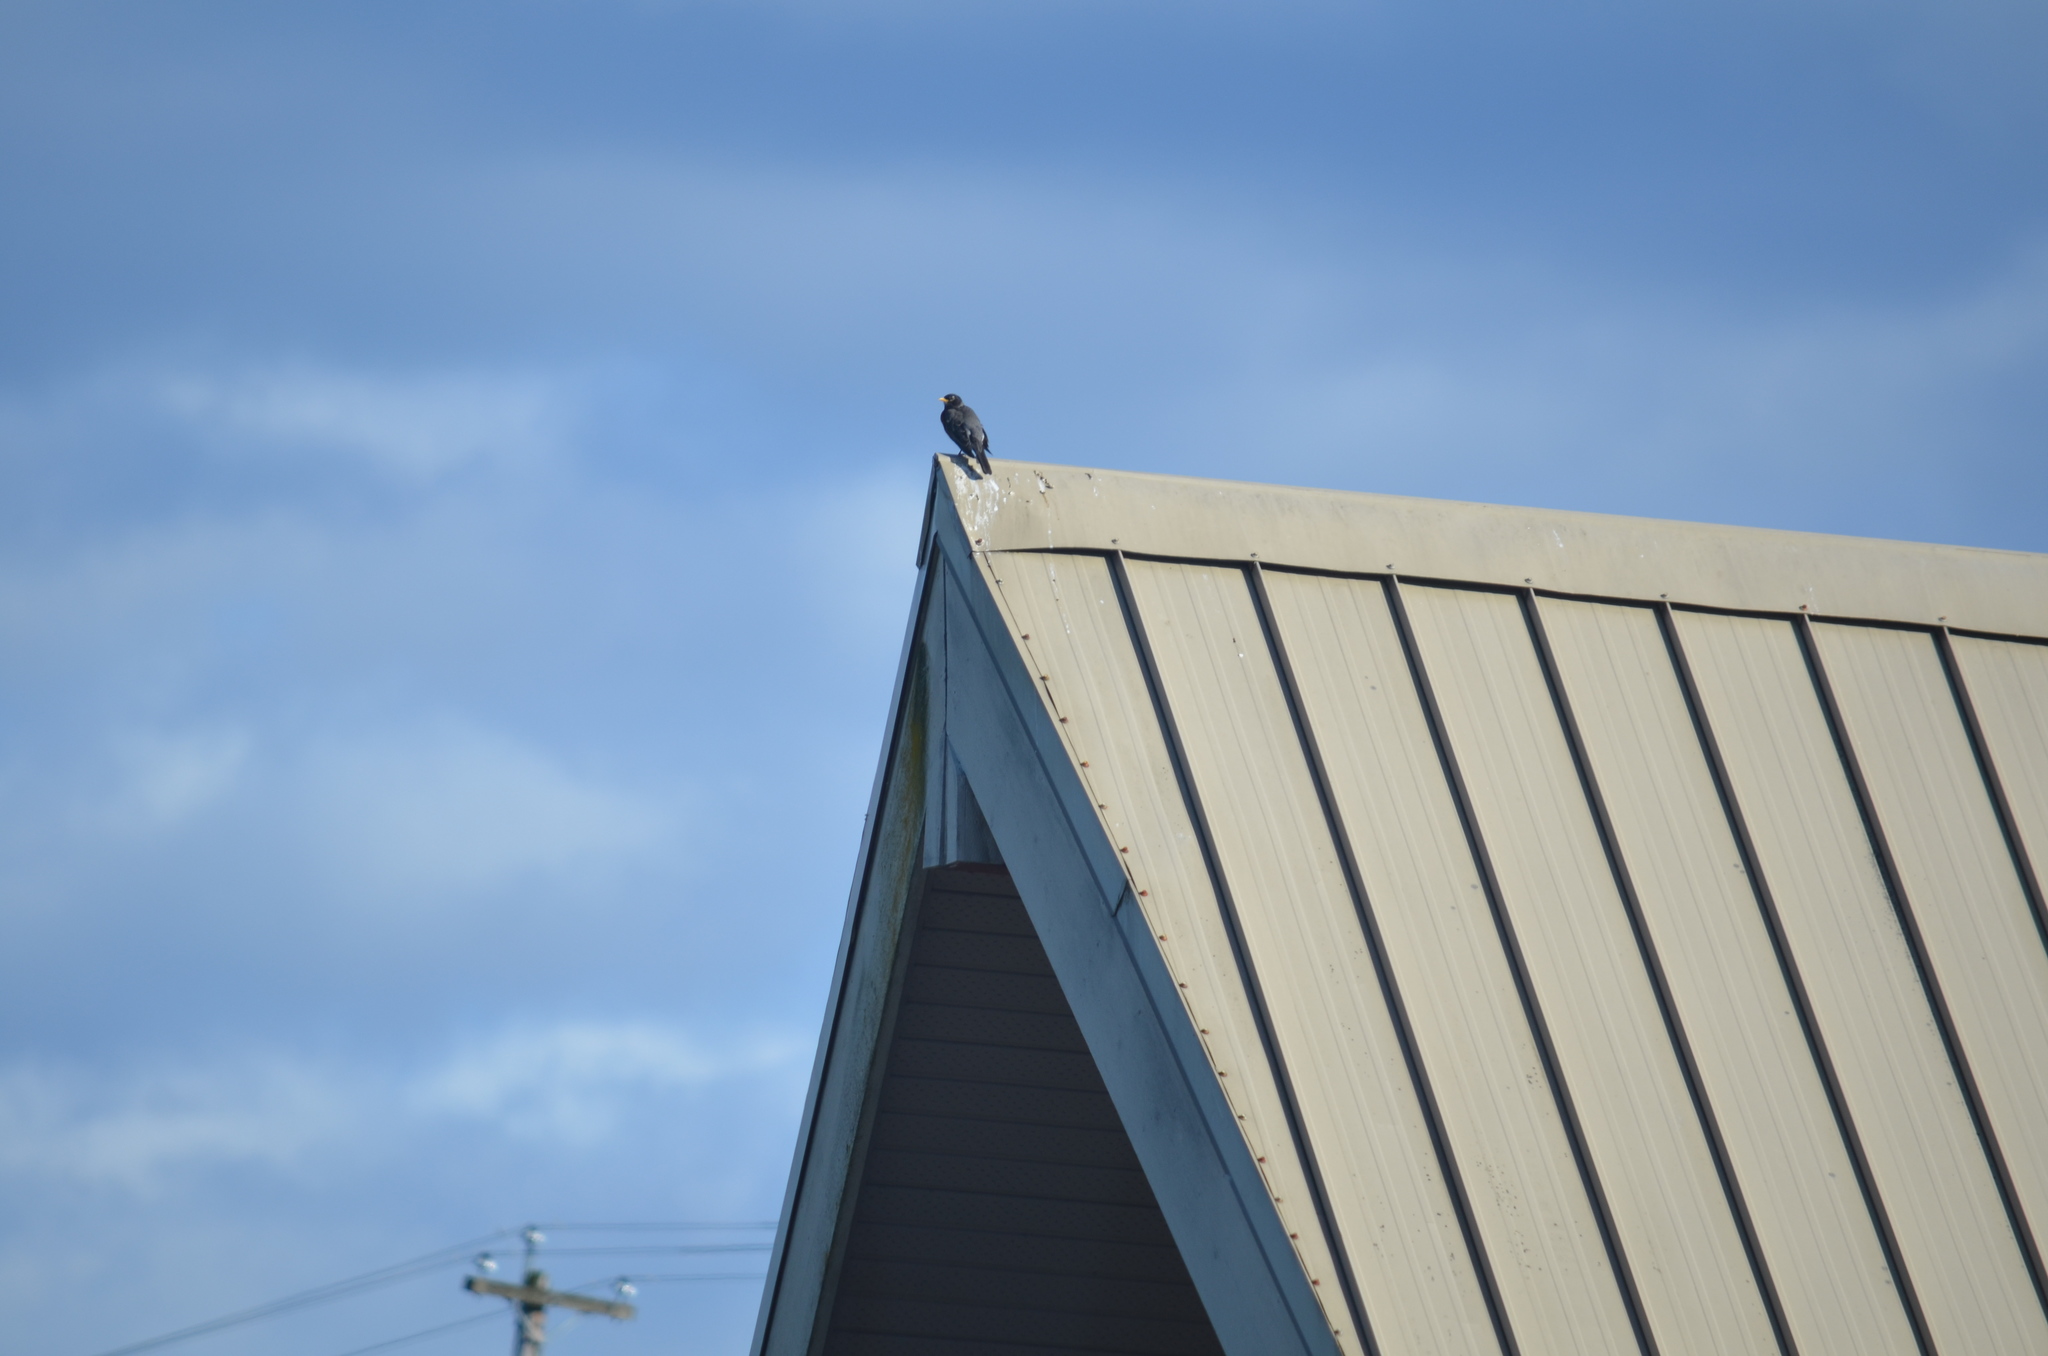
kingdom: Animalia
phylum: Chordata
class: Aves
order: Passeriformes
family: Turdidae
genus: Turdus
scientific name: Turdus migratorius
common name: American robin
